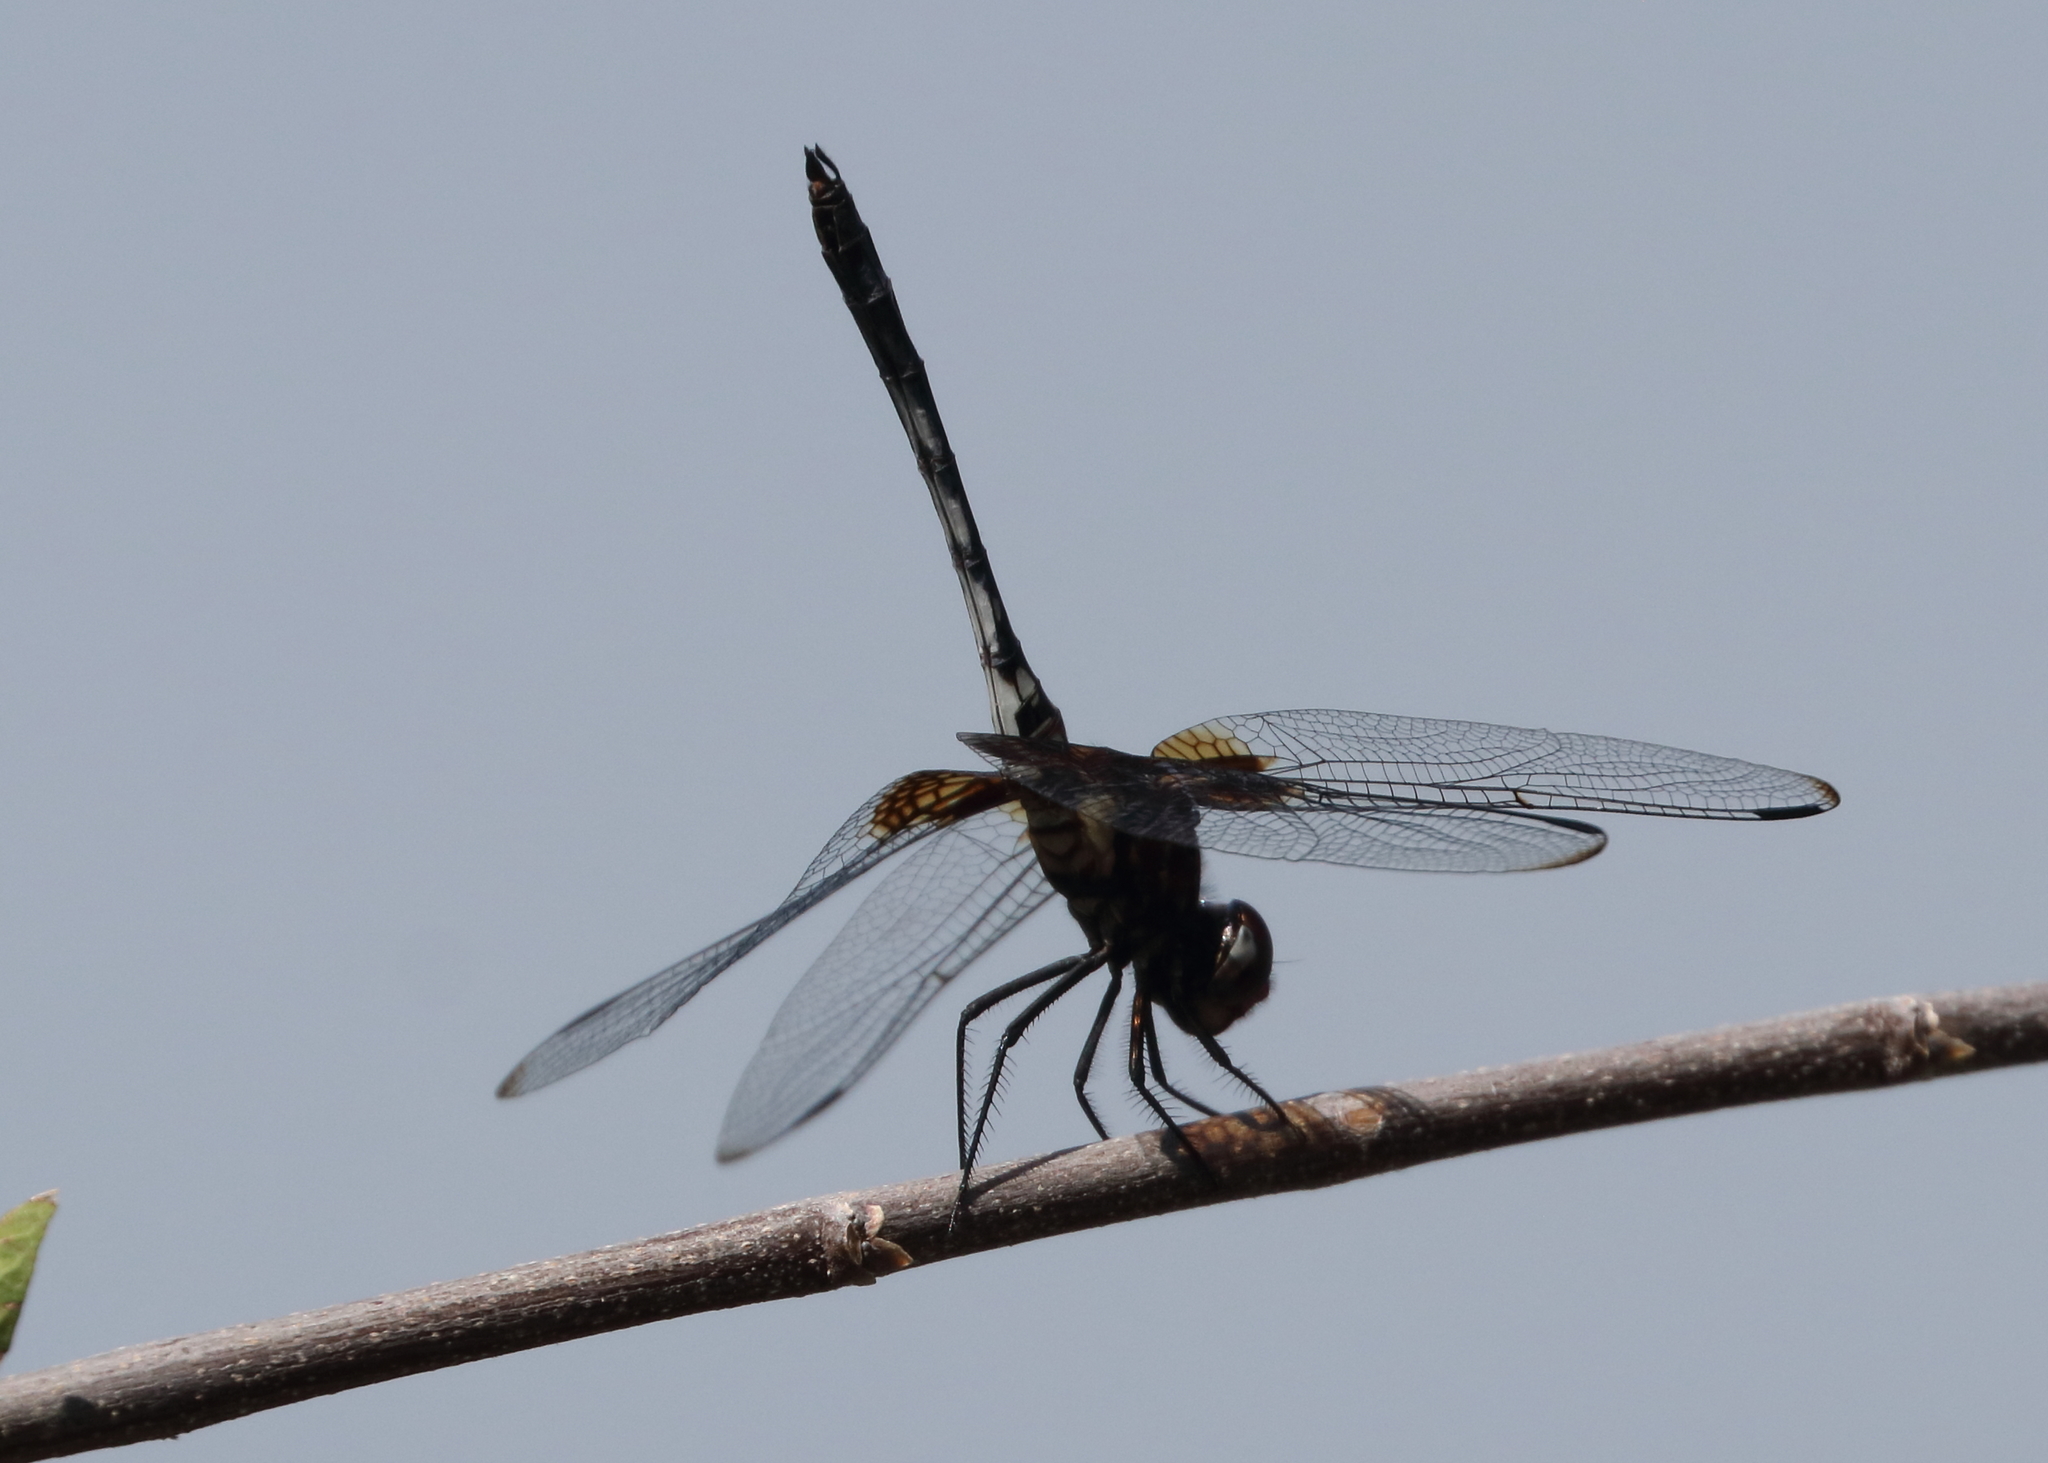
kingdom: Animalia
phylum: Arthropoda
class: Insecta
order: Odonata
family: Libellulidae
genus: Dythemis
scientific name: Dythemis fugax
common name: Checkered setwing
